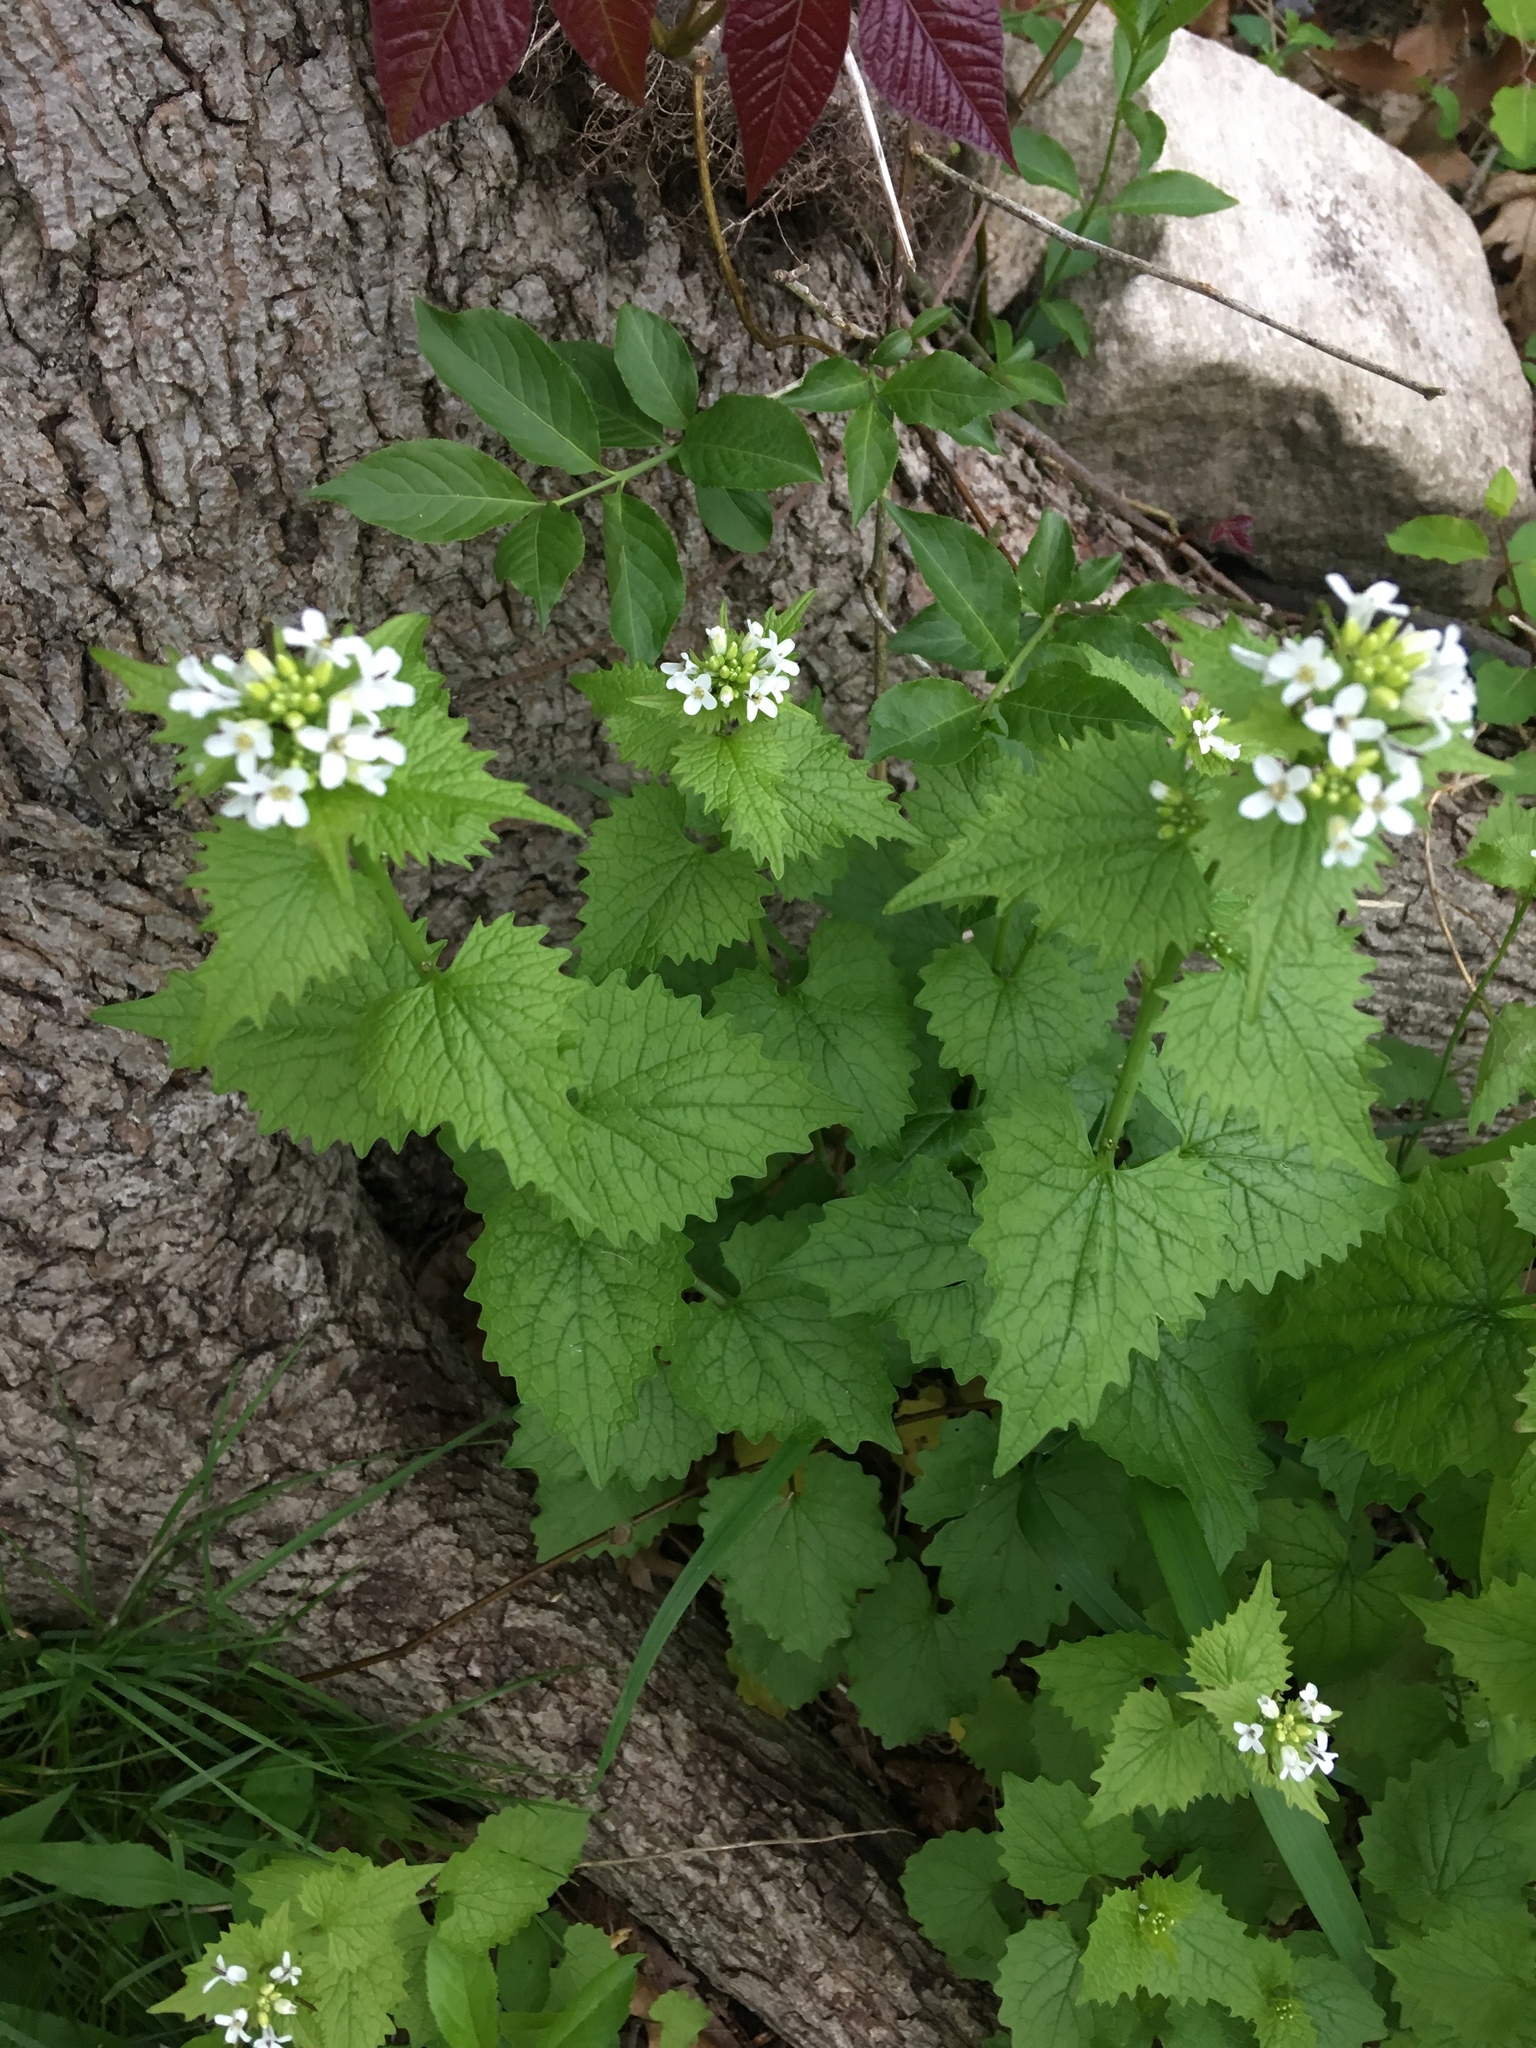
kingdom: Plantae
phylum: Tracheophyta
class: Magnoliopsida
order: Brassicales
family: Brassicaceae
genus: Alliaria
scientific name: Alliaria petiolata
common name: Garlic mustard
